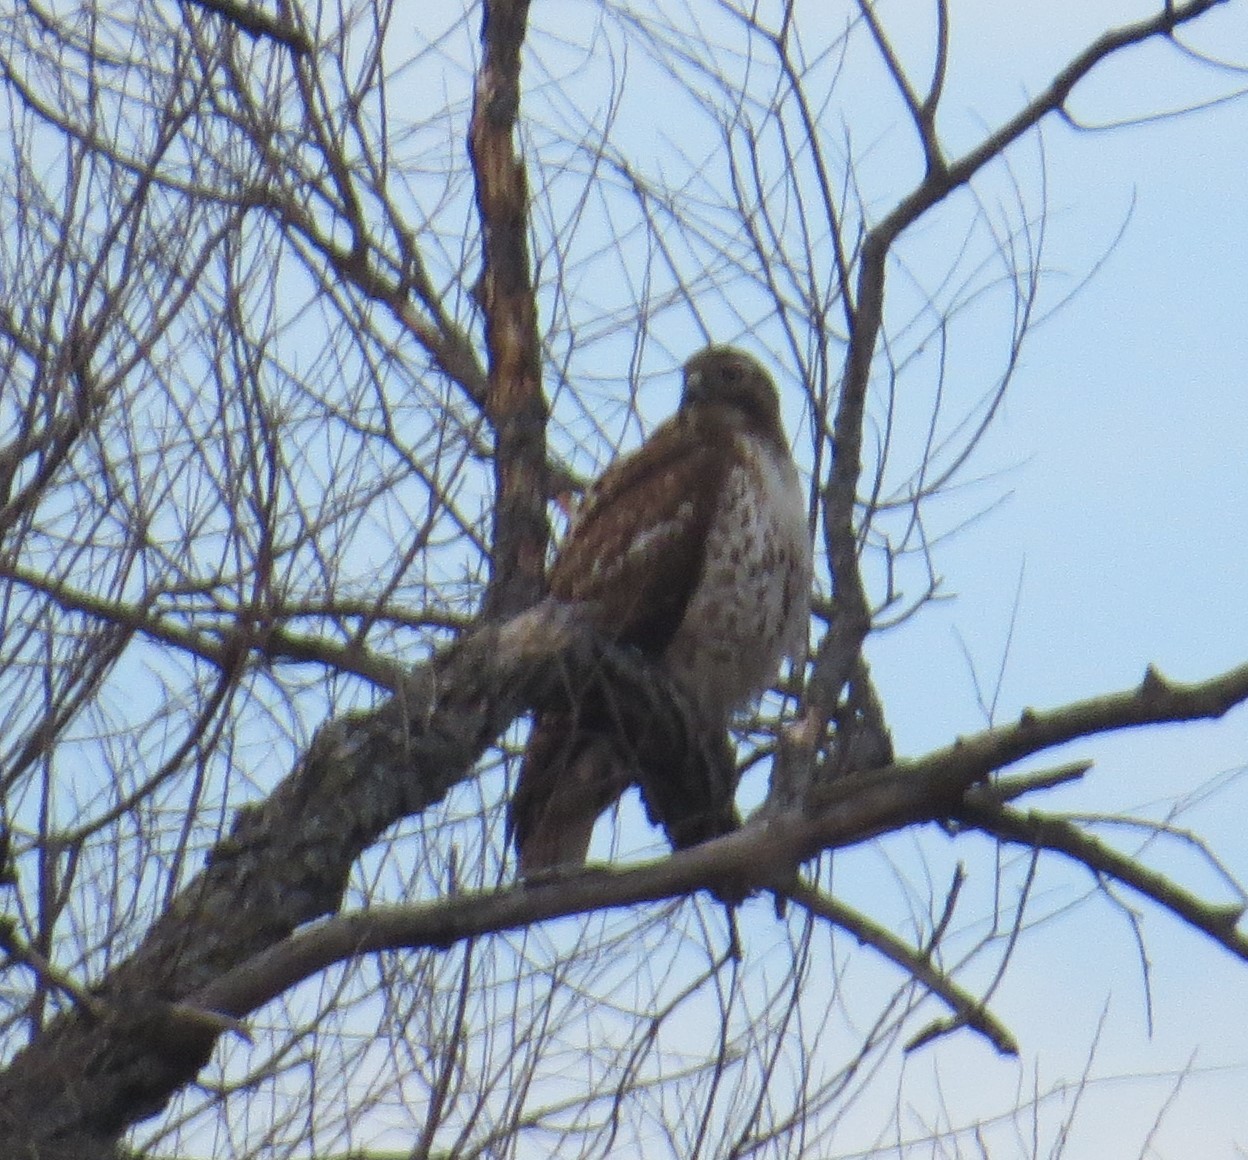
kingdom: Animalia
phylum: Chordata
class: Aves
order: Accipitriformes
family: Accipitridae
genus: Buteo
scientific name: Buteo jamaicensis
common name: Red-tailed hawk
